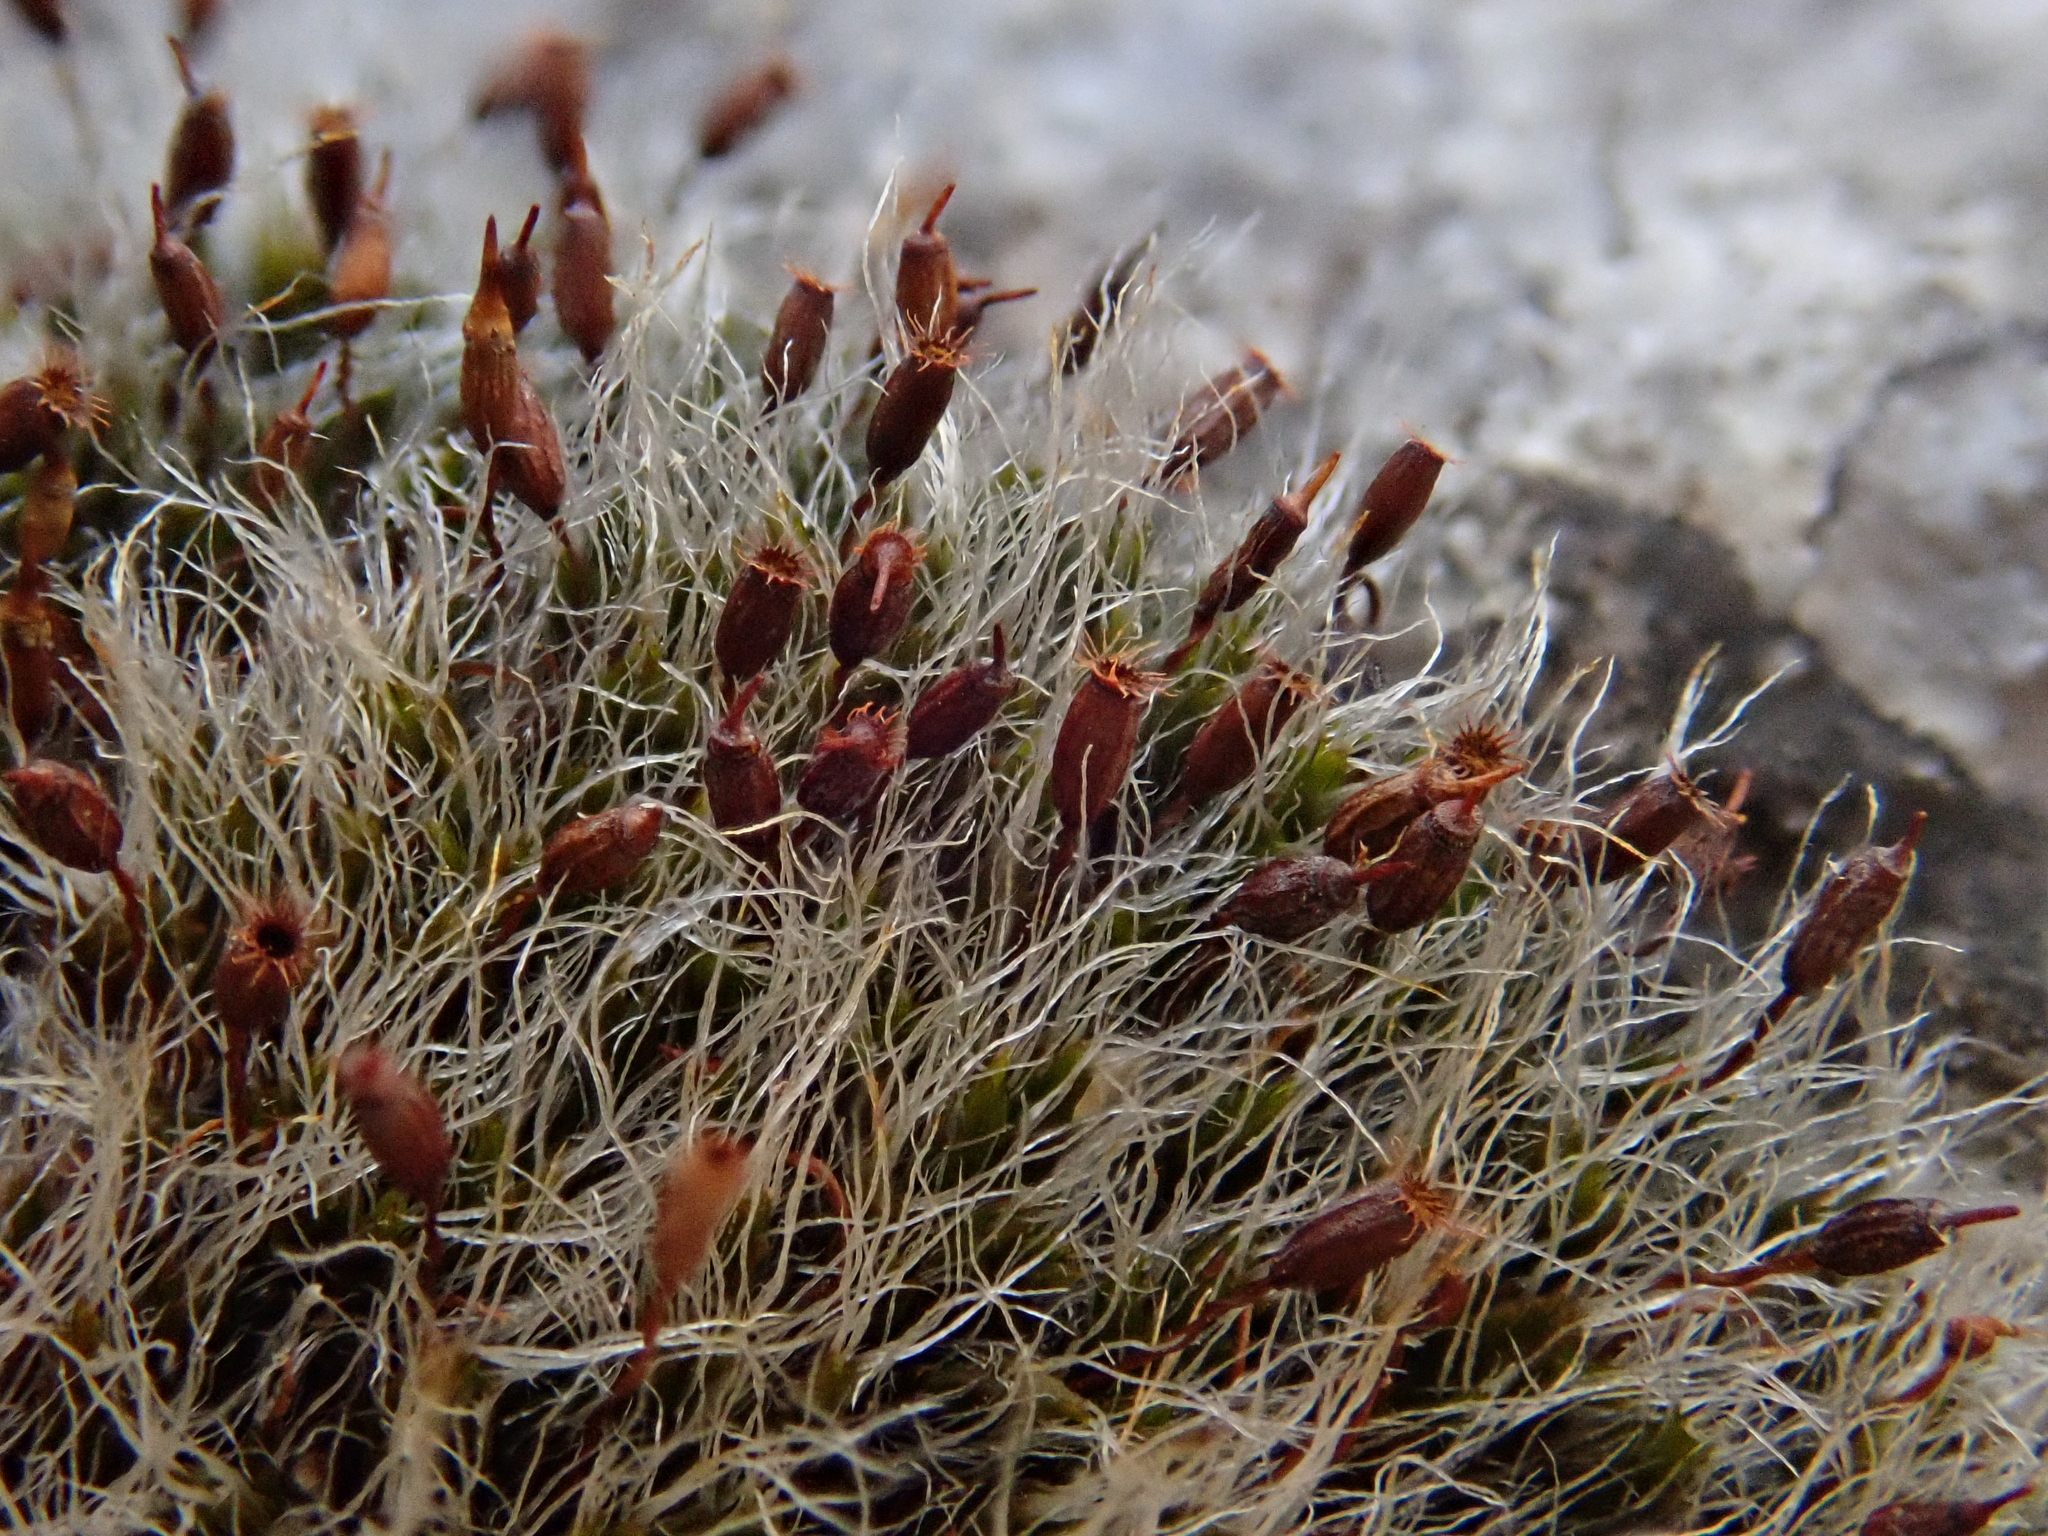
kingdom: Plantae
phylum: Bryophyta
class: Bryopsida
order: Grimmiales
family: Grimmiaceae
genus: Grimmia
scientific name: Grimmia pulvinata
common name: Grey-cushioned grimmia
